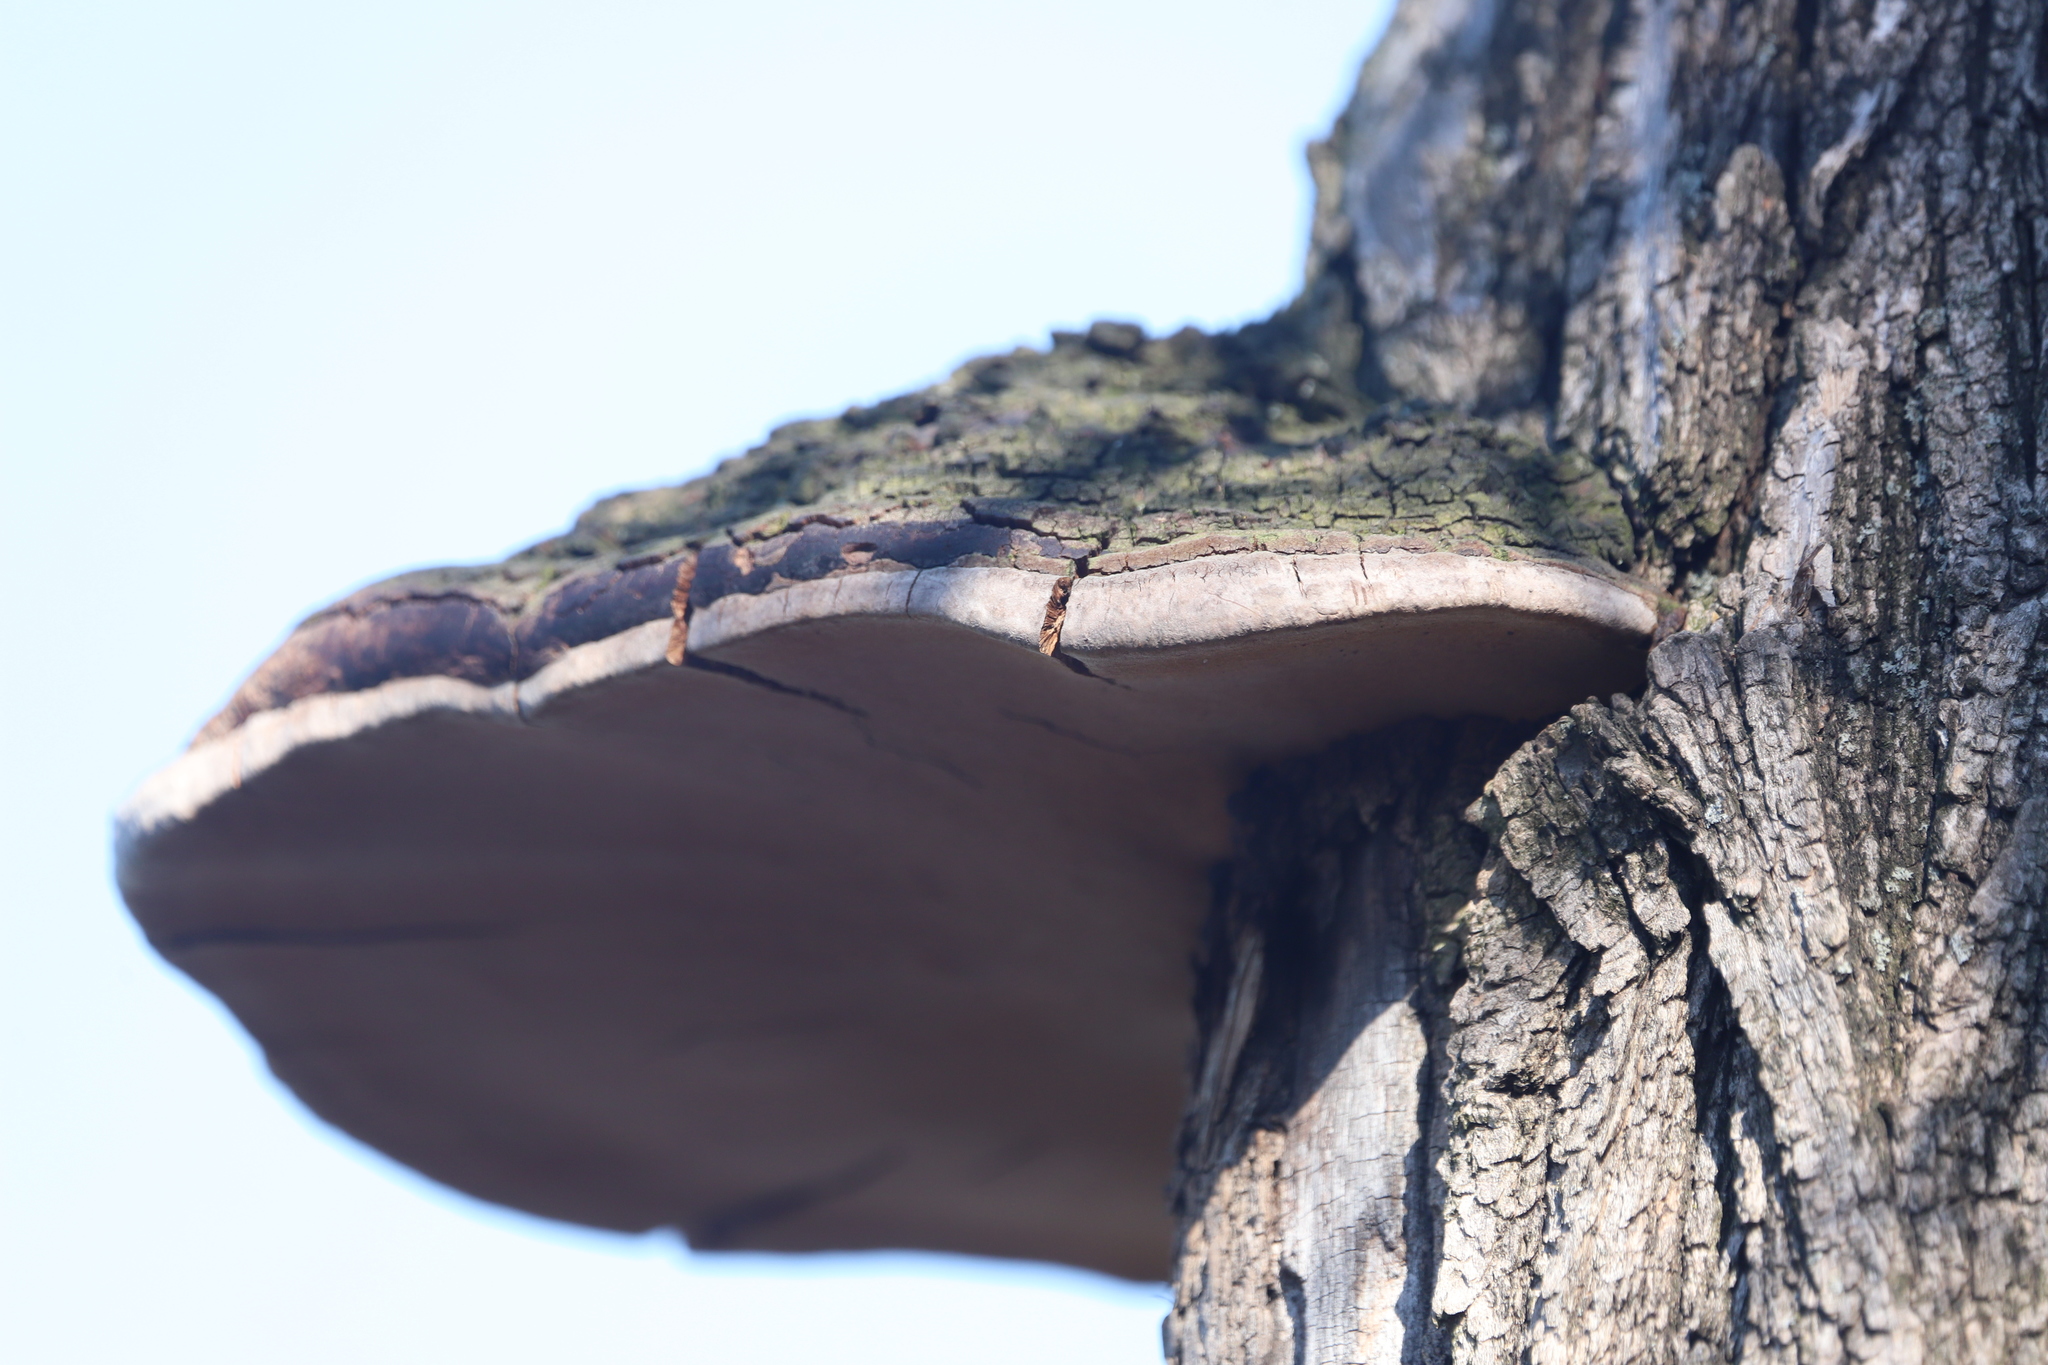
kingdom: Fungi
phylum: Basidiomycota
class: Agaricomycetes
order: Hymenochaetales
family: Hymenochaetaceae
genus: Phellinus
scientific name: Phellinus robiniae
